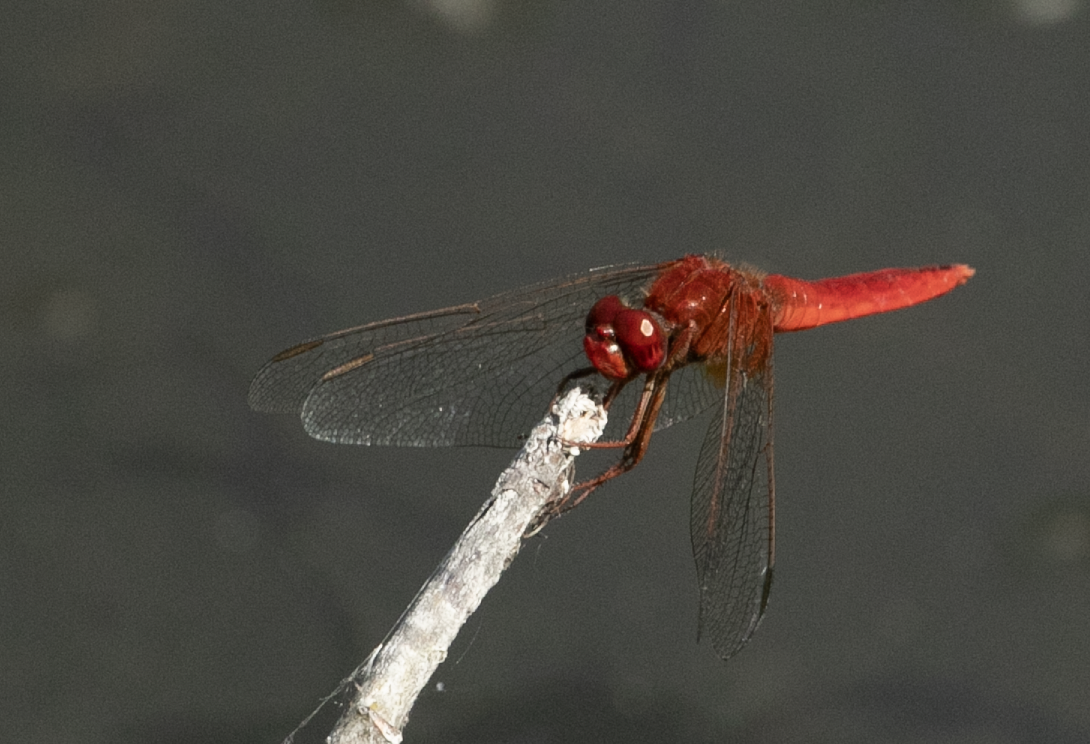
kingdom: Animalia
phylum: Arthropoda
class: Insecta
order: Odonata
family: Libellulidae
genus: Crocothemis
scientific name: Crocothemis erythraea
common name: Scarlet dragonfly
